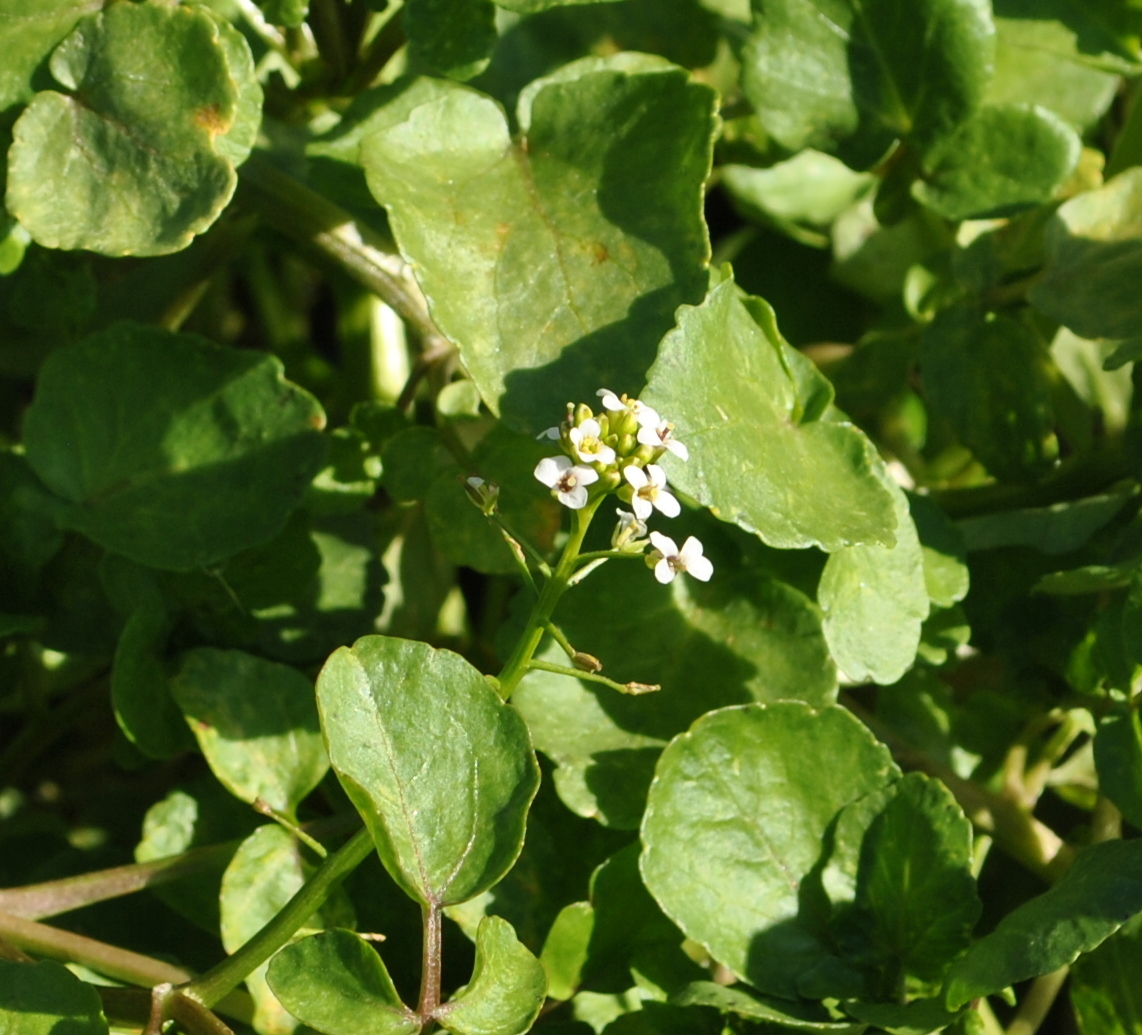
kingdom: Plantae
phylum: Tracheophyta
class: Magnoliopsida
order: Brassicales
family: Brassicaceae
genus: Nasturtium
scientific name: Nasturtium officinale
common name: Watercress
